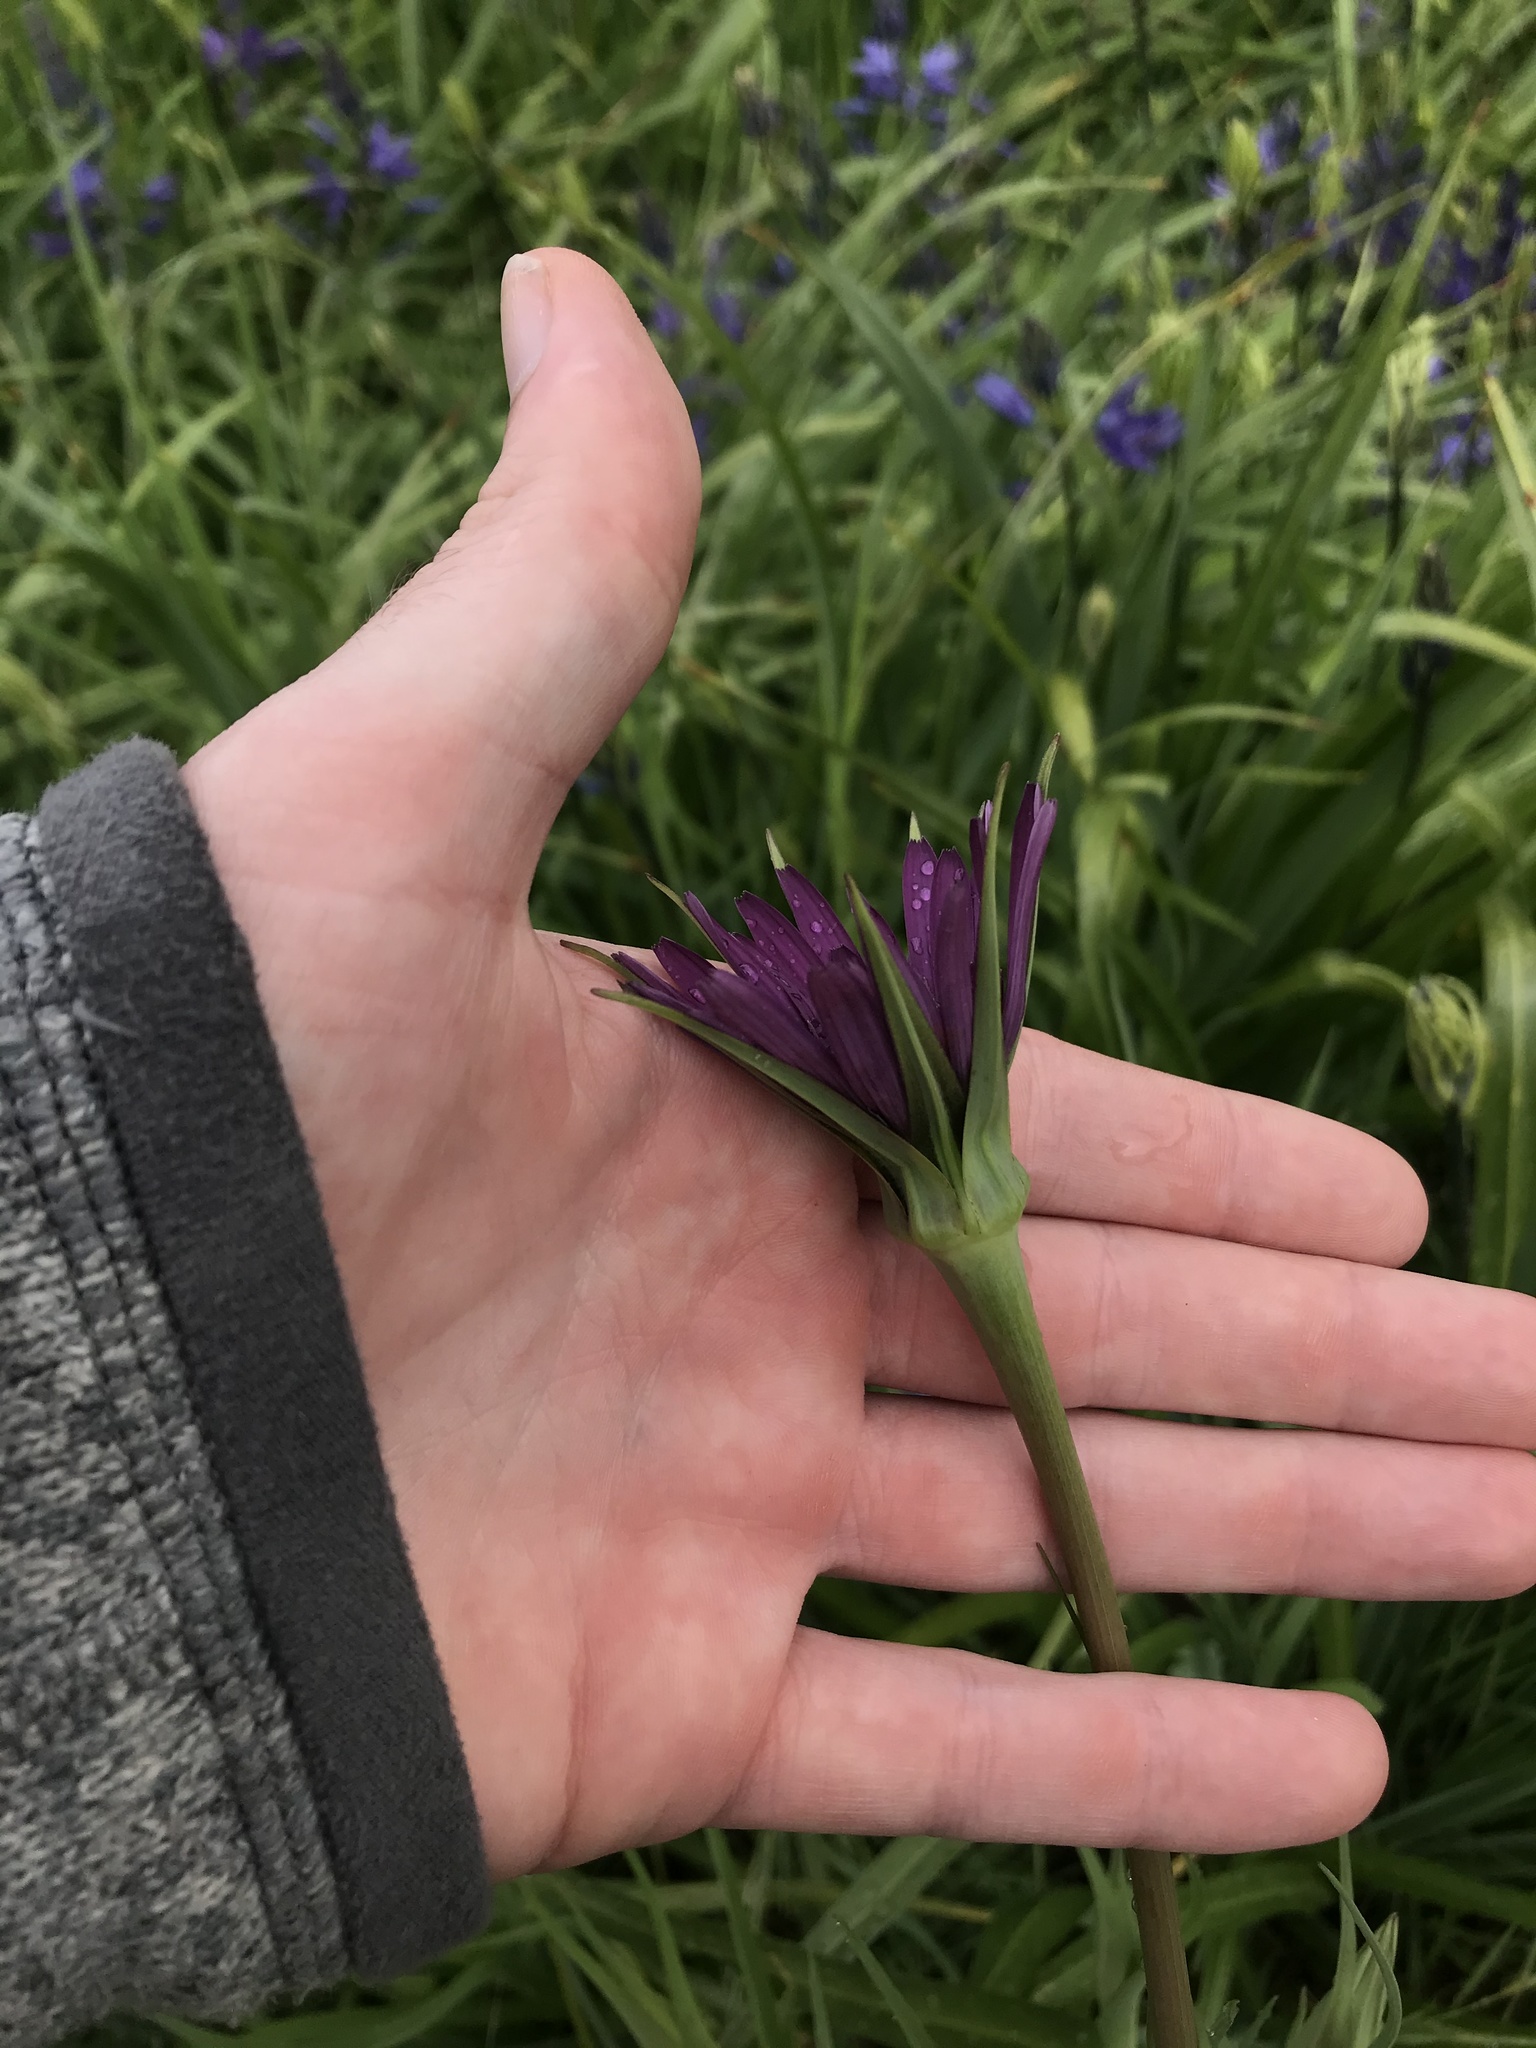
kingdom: Plantae
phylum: Tracheophyta
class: Magnoliopsida
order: Asterales
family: Asteraceae
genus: Tragopogon
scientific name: Tragopogon porrifolius
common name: Salsify
